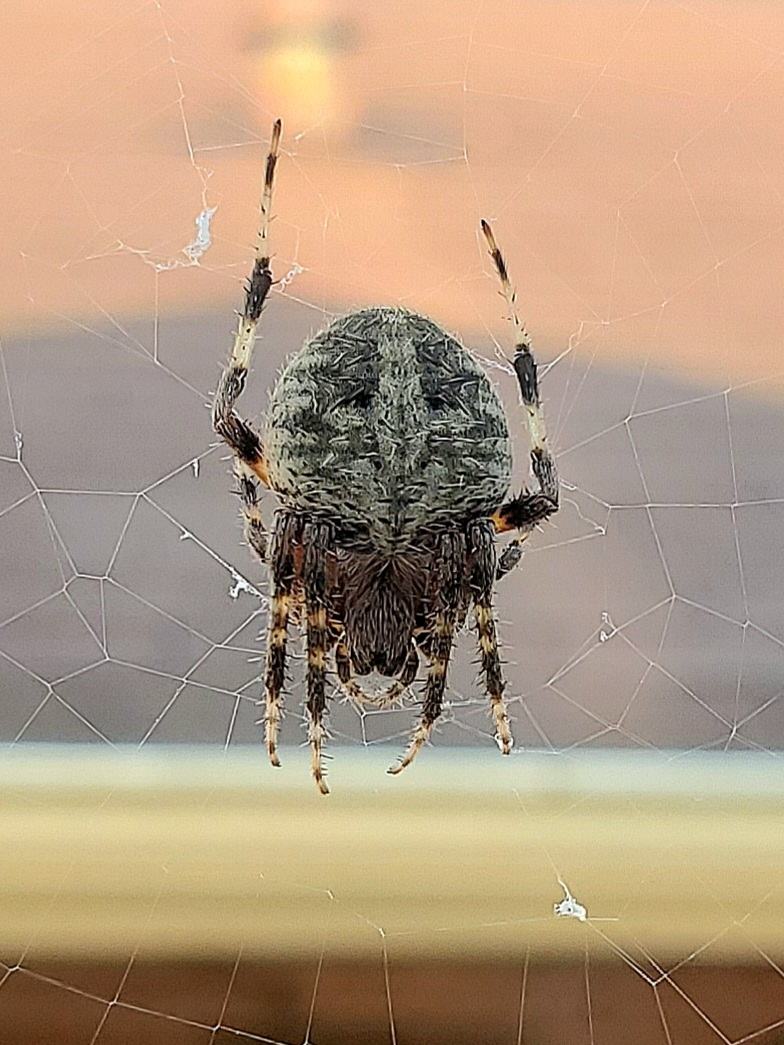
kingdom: Animalia
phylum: Arthropoda
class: Arachnida
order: Araneae
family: Araneidae
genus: Neoscona
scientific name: Neoscona crucifera
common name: Spotted orbweaver
